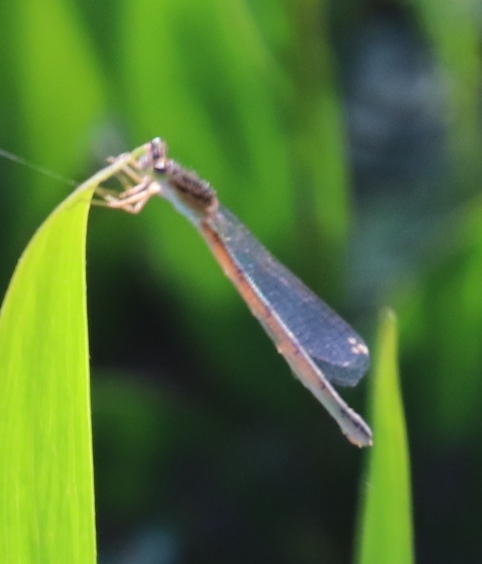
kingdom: Animalia
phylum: Arthropoda
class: Insecta
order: Odonata
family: Coenagrionidae
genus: Africallagma
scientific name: Africallagma glaucum
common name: Swamp bluet
